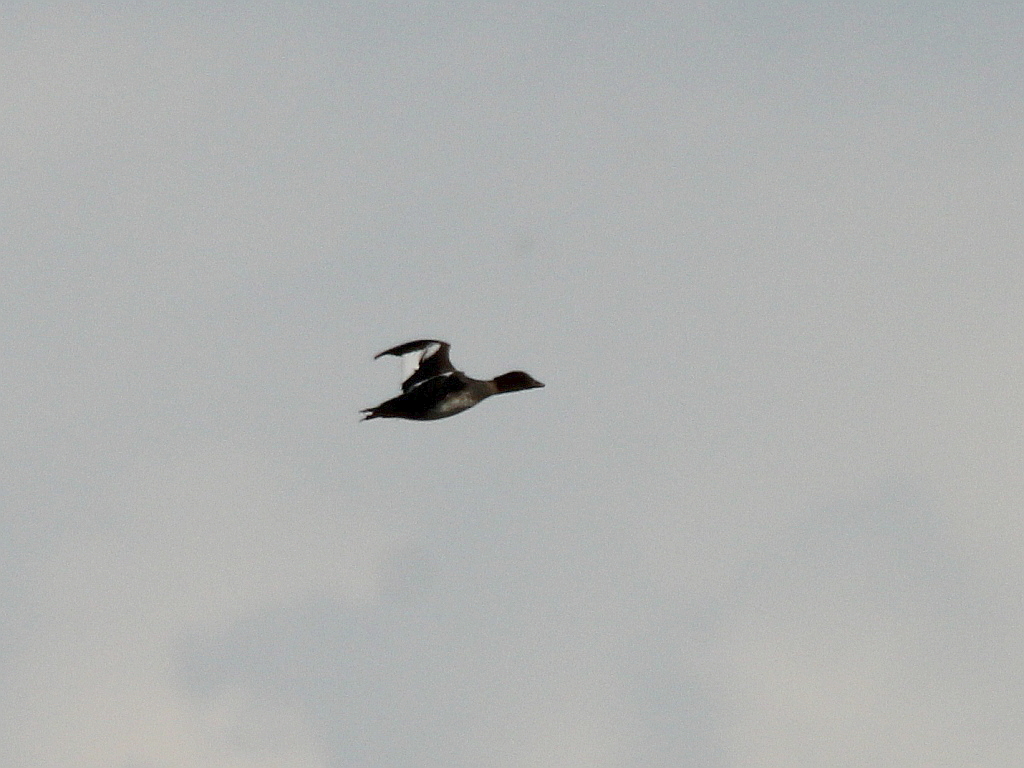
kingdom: Animalia
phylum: Chordata
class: Aves
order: Anseriformes
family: Anatidae
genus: Bucephala
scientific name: Bucephala clangula
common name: Common goldeneye
